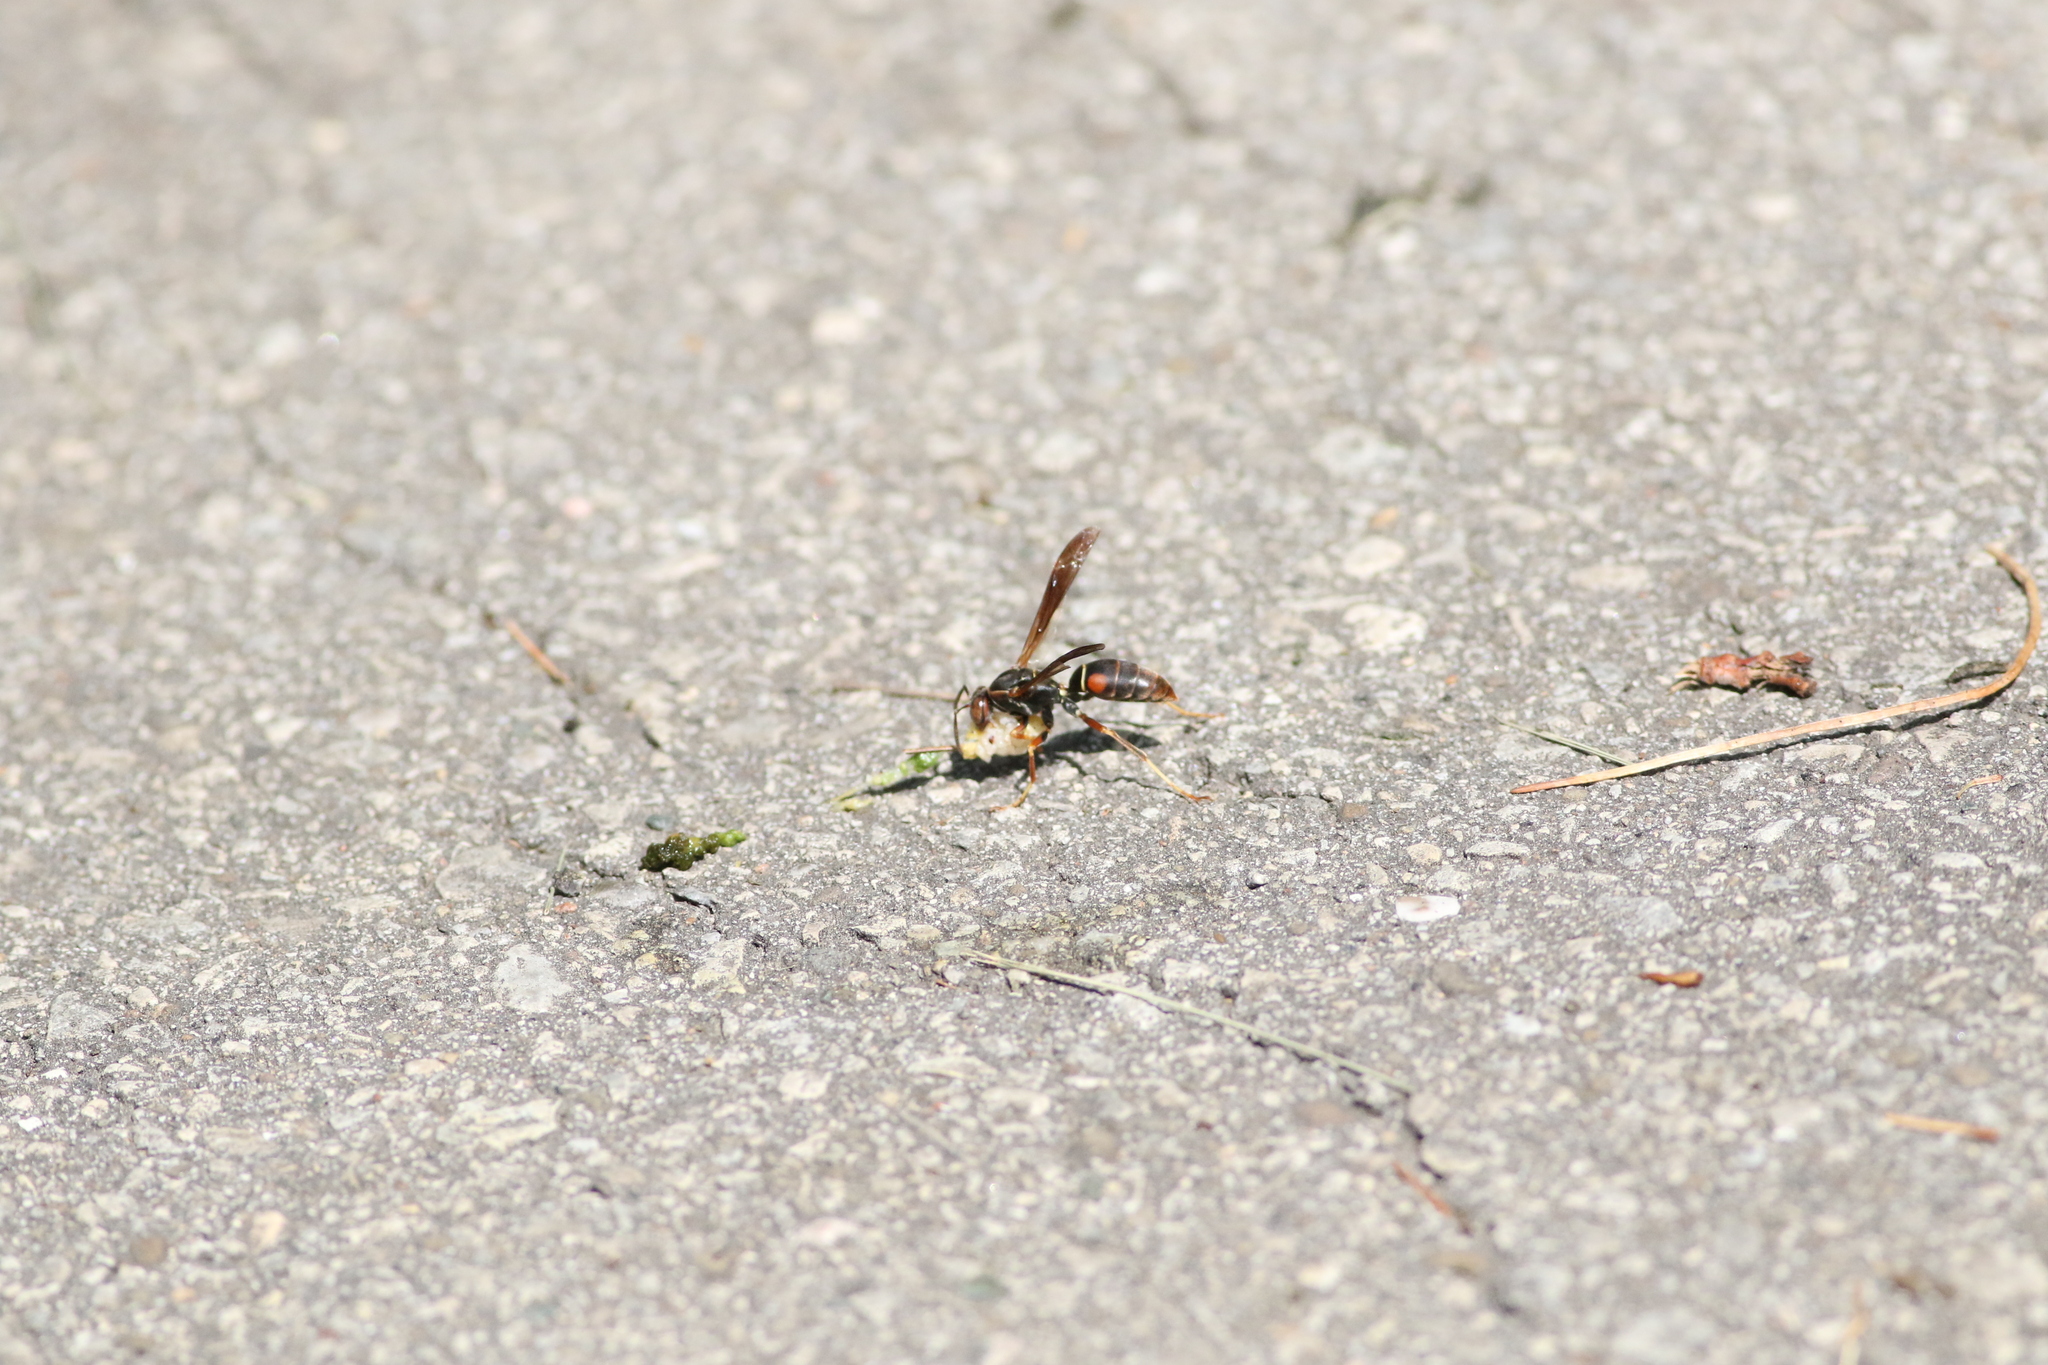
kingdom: Animalia
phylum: Arthropoda
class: Insecta
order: Hymenoptera
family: Eumenidae
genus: Polistes
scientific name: Polistes fuscatus
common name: Dark paper wasp
